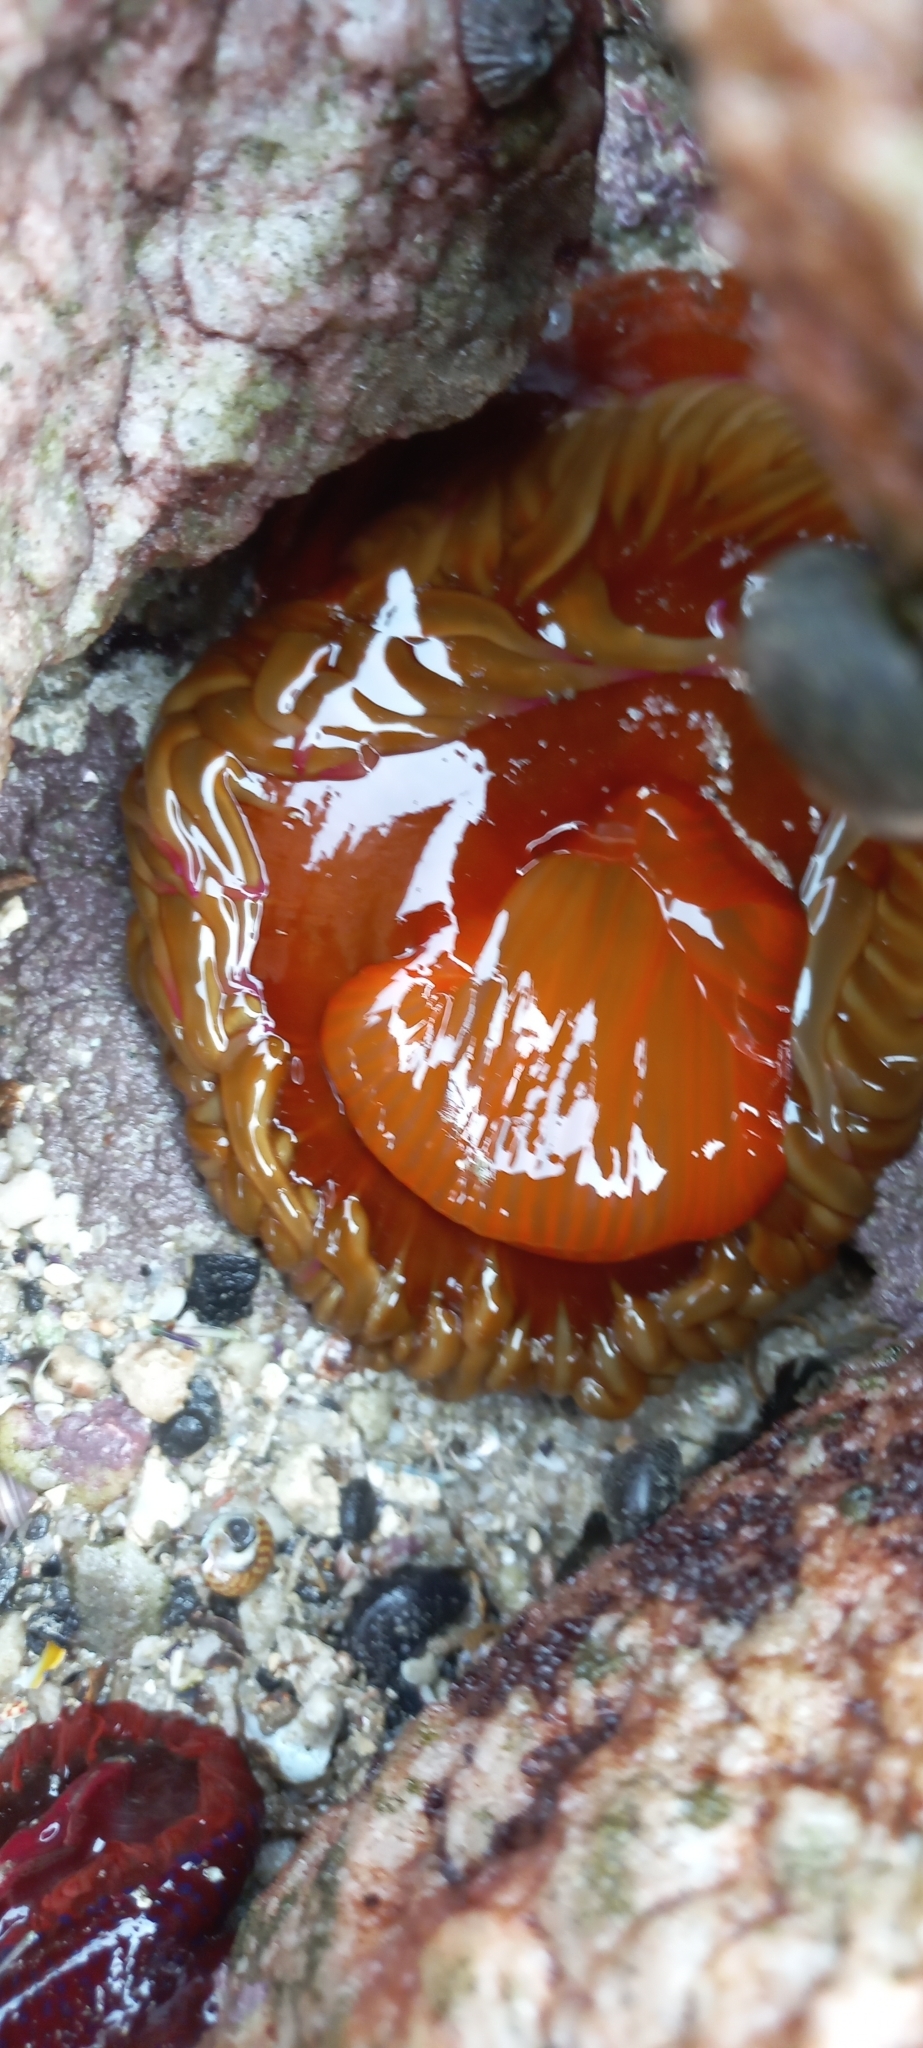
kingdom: Animalia
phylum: Cnidaria
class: Anthozoa
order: Actiniaria
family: Actiniidae
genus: Pseudactinia
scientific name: Pseudactinia flagellifera
